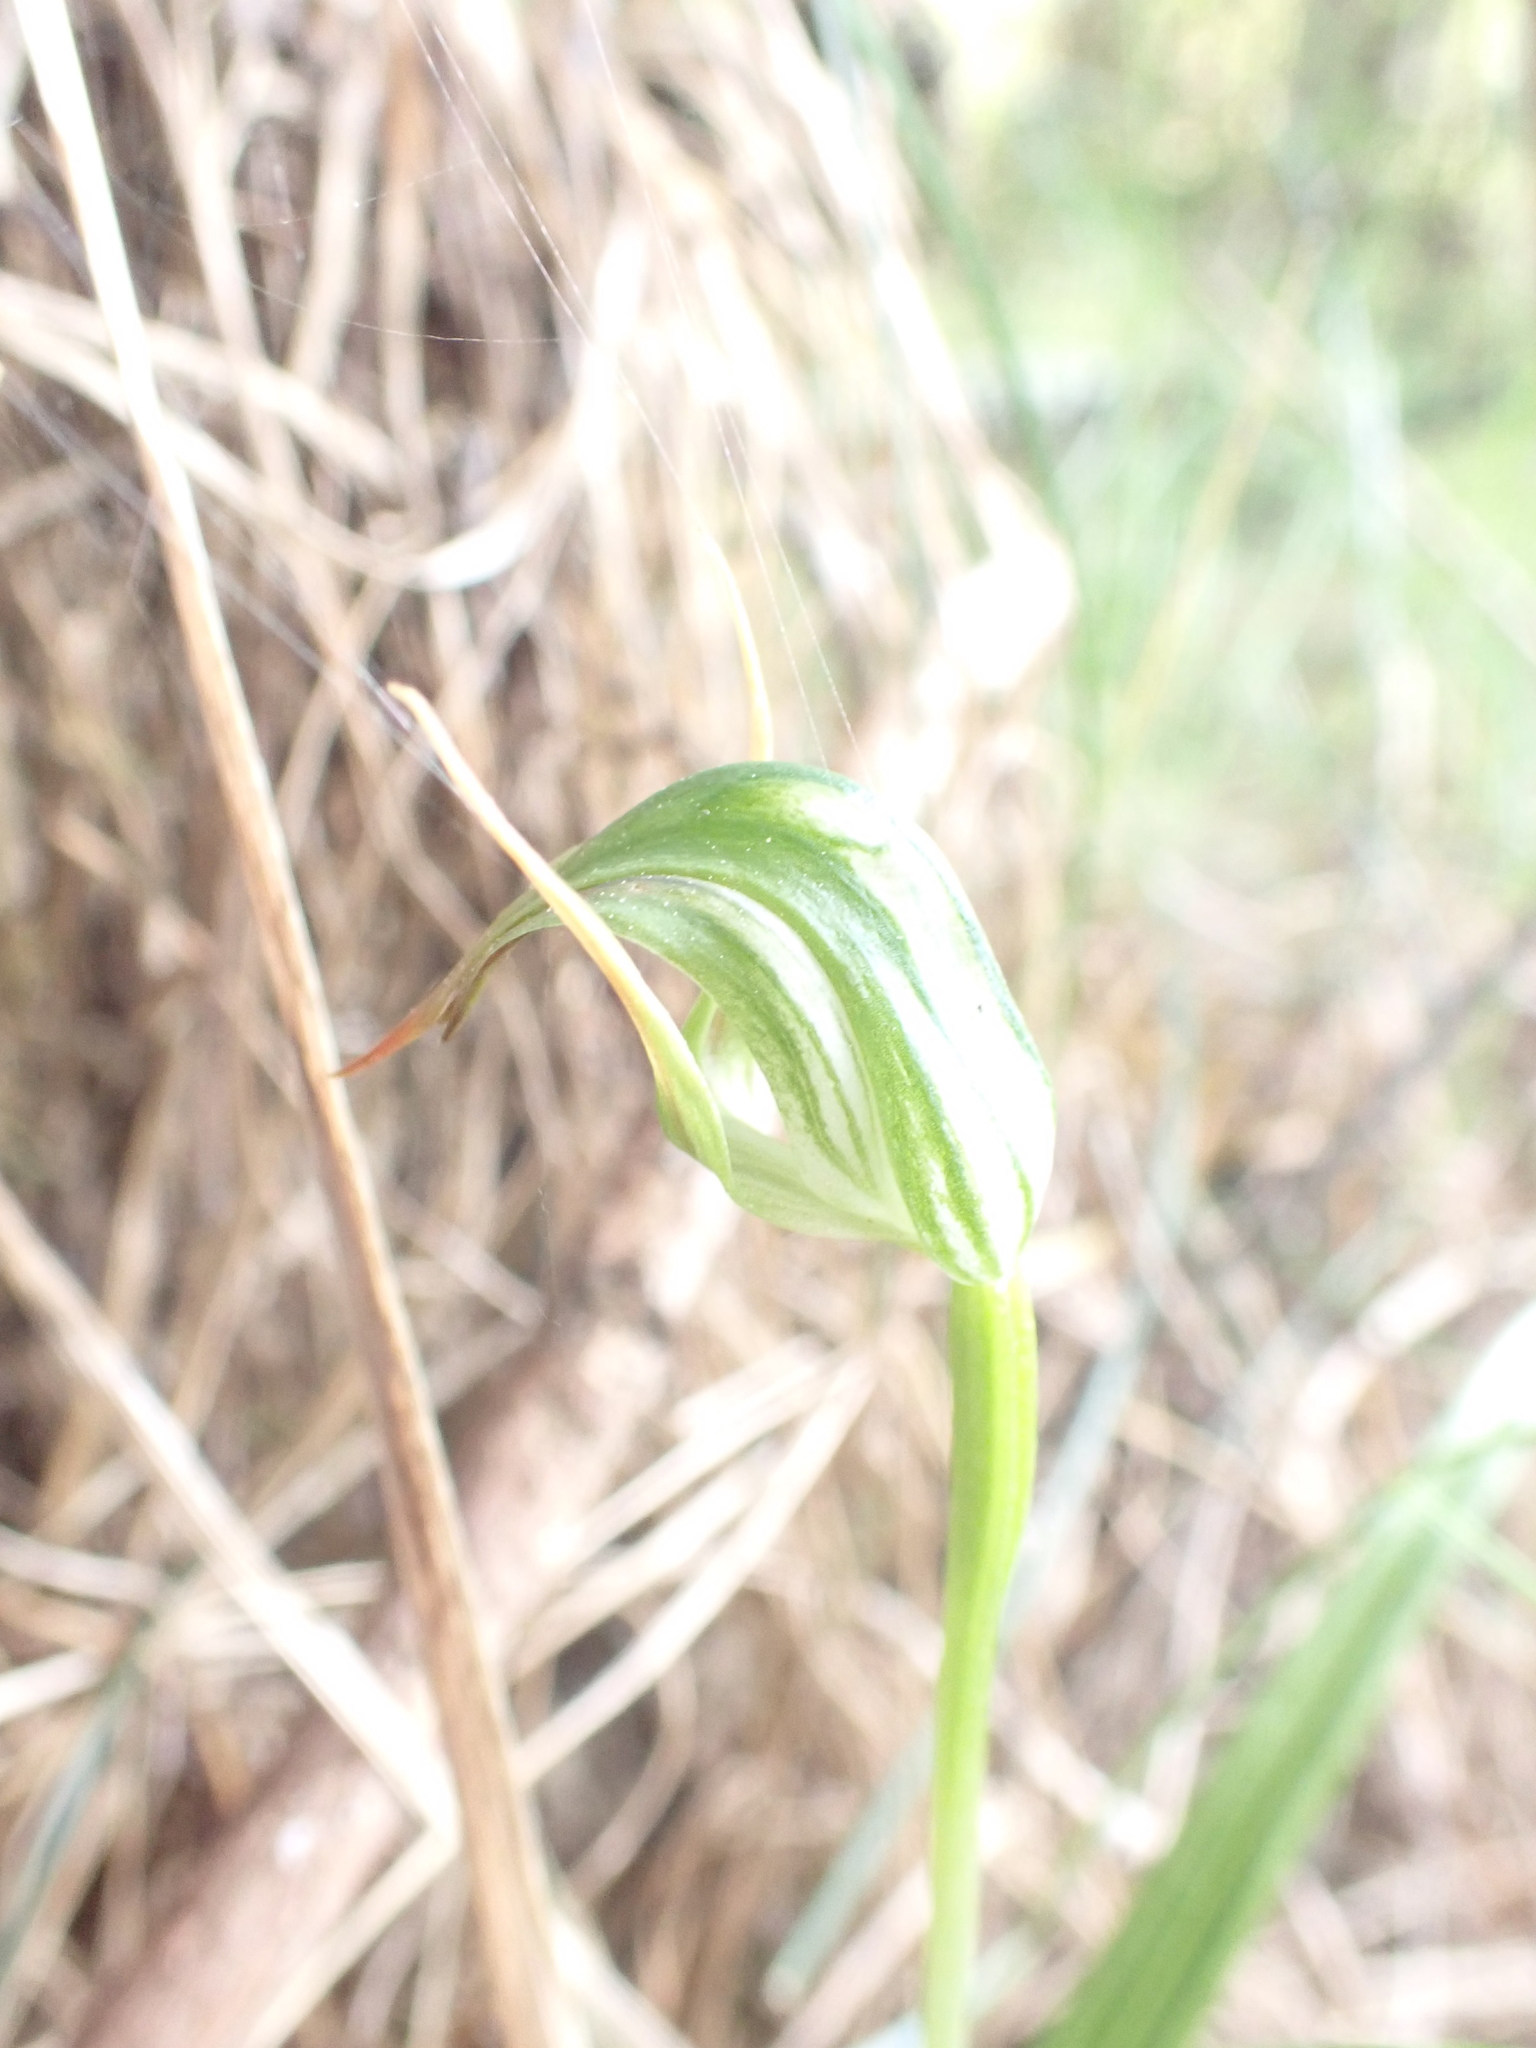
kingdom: Plantae
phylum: Tracheophyta
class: Liliopsida
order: Asparagales
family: Orchidaceae
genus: Pterostylis
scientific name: Pterostylis graminea
